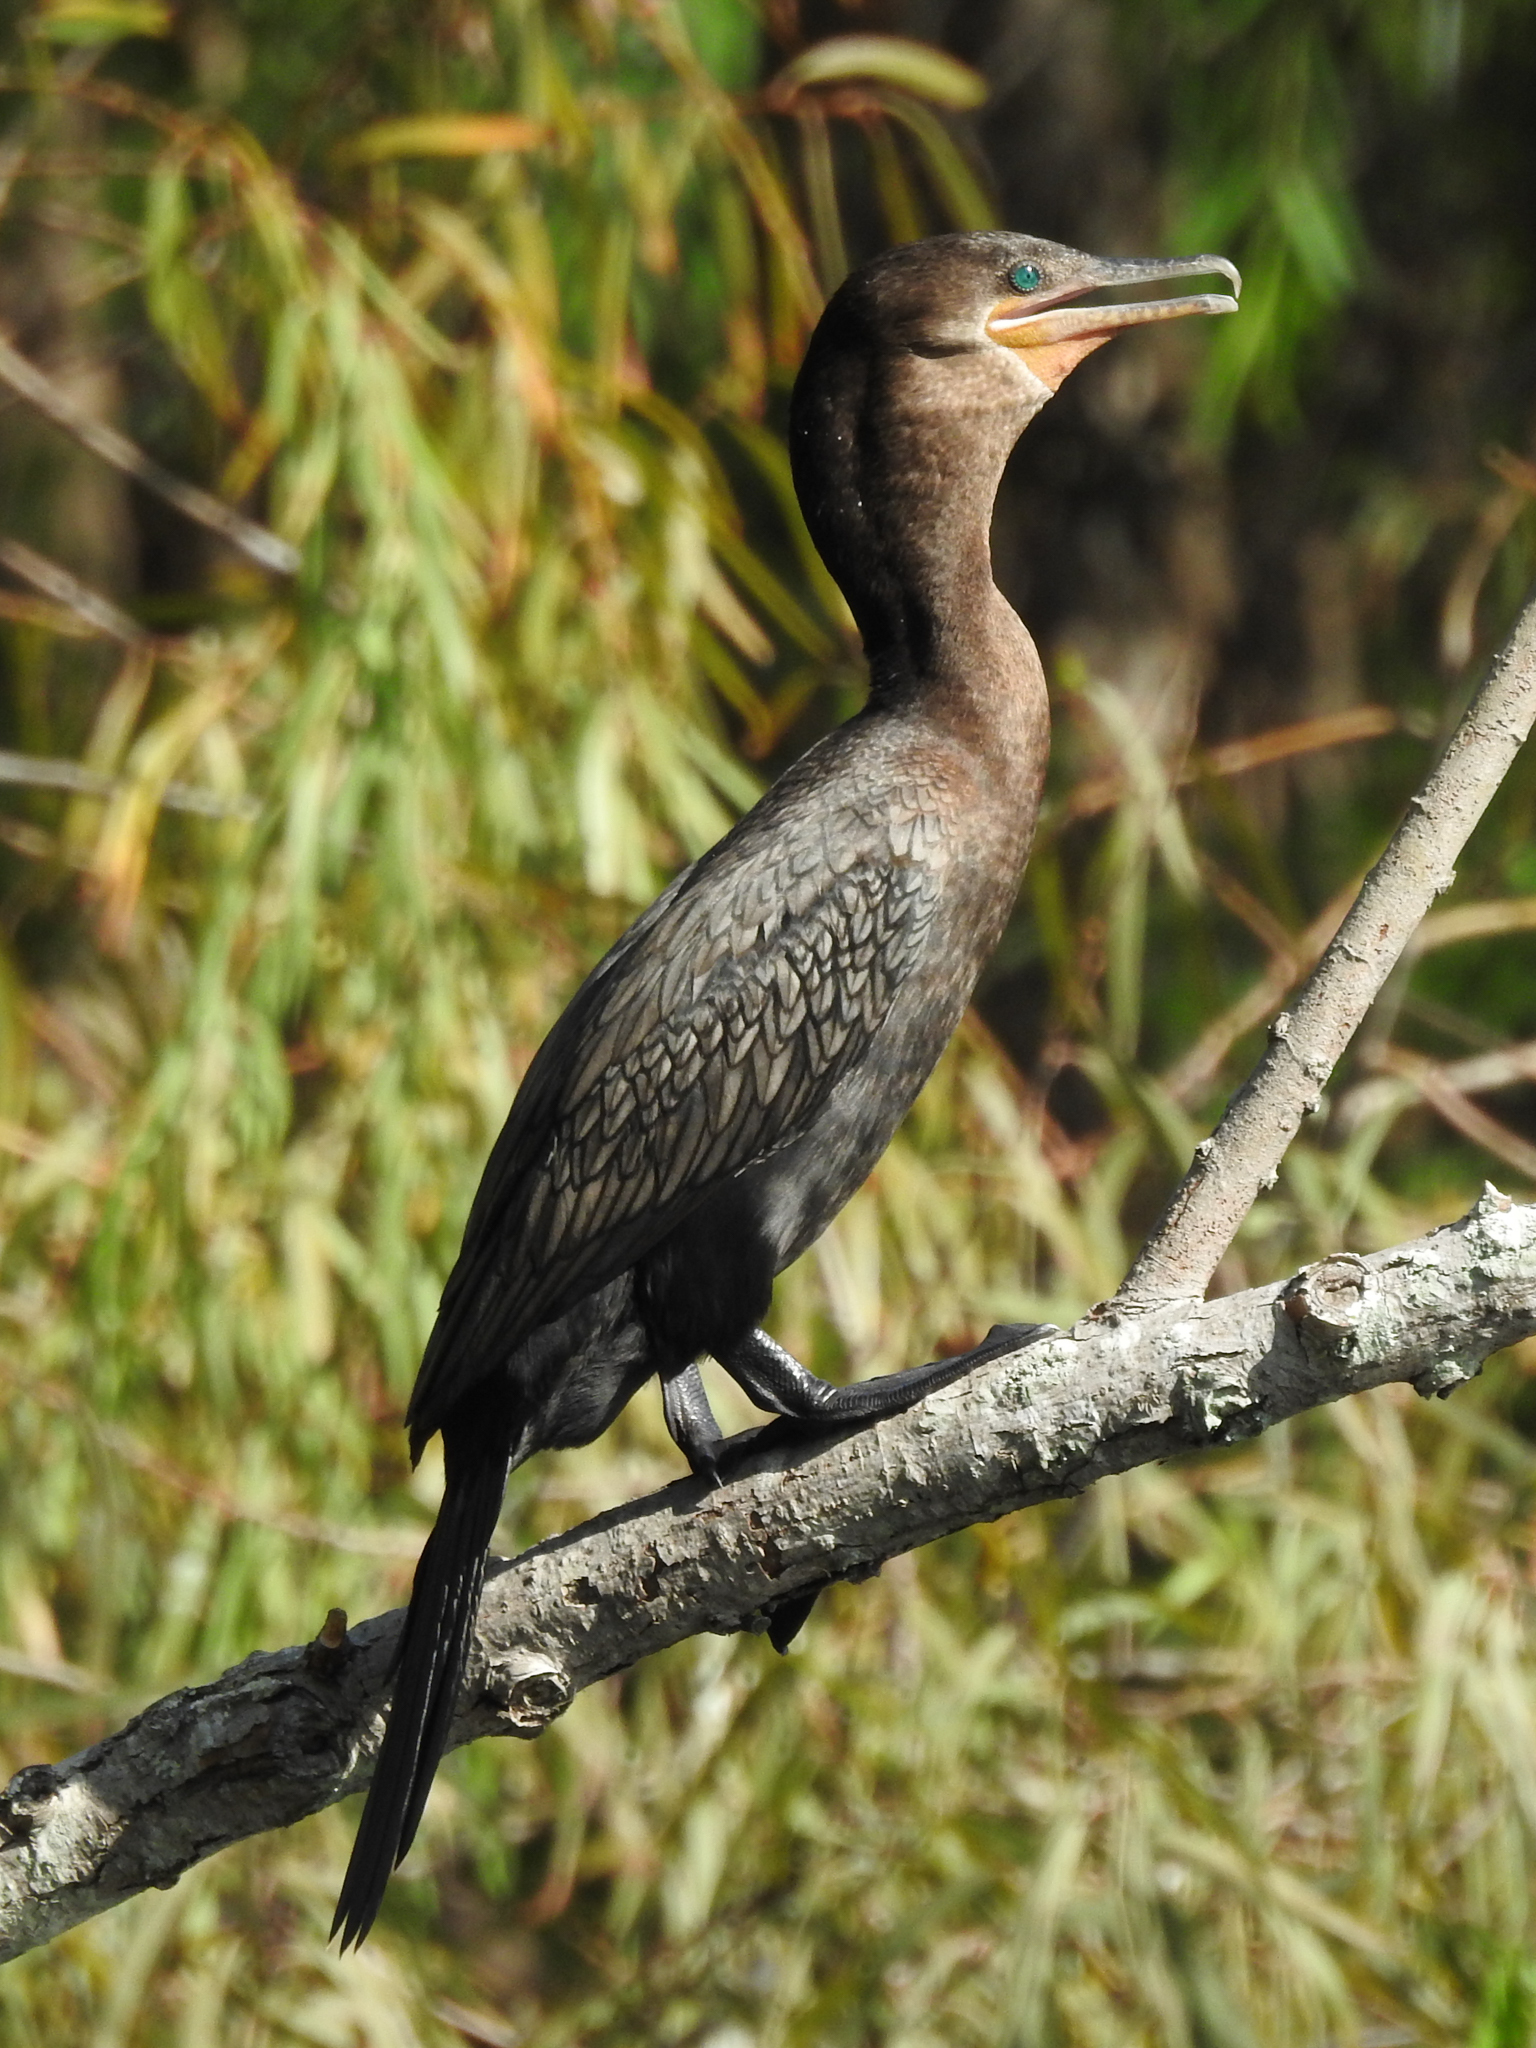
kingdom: Animalia
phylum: Chordata
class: Aves
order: Suliformes
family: Phalacrocoracidae
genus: Phalacrocorax
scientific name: Phalacrocorax brasilianus
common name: Neotropic cormorant
